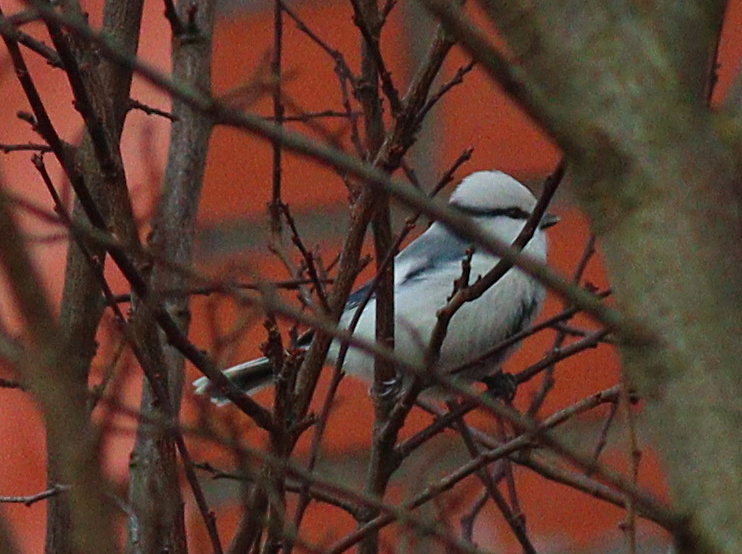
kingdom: Animalia
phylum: Chordata
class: Aves
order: Passeriformes
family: Paridae
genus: Cyanistes
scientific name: Cyanistes cyanus
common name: Azure tit
